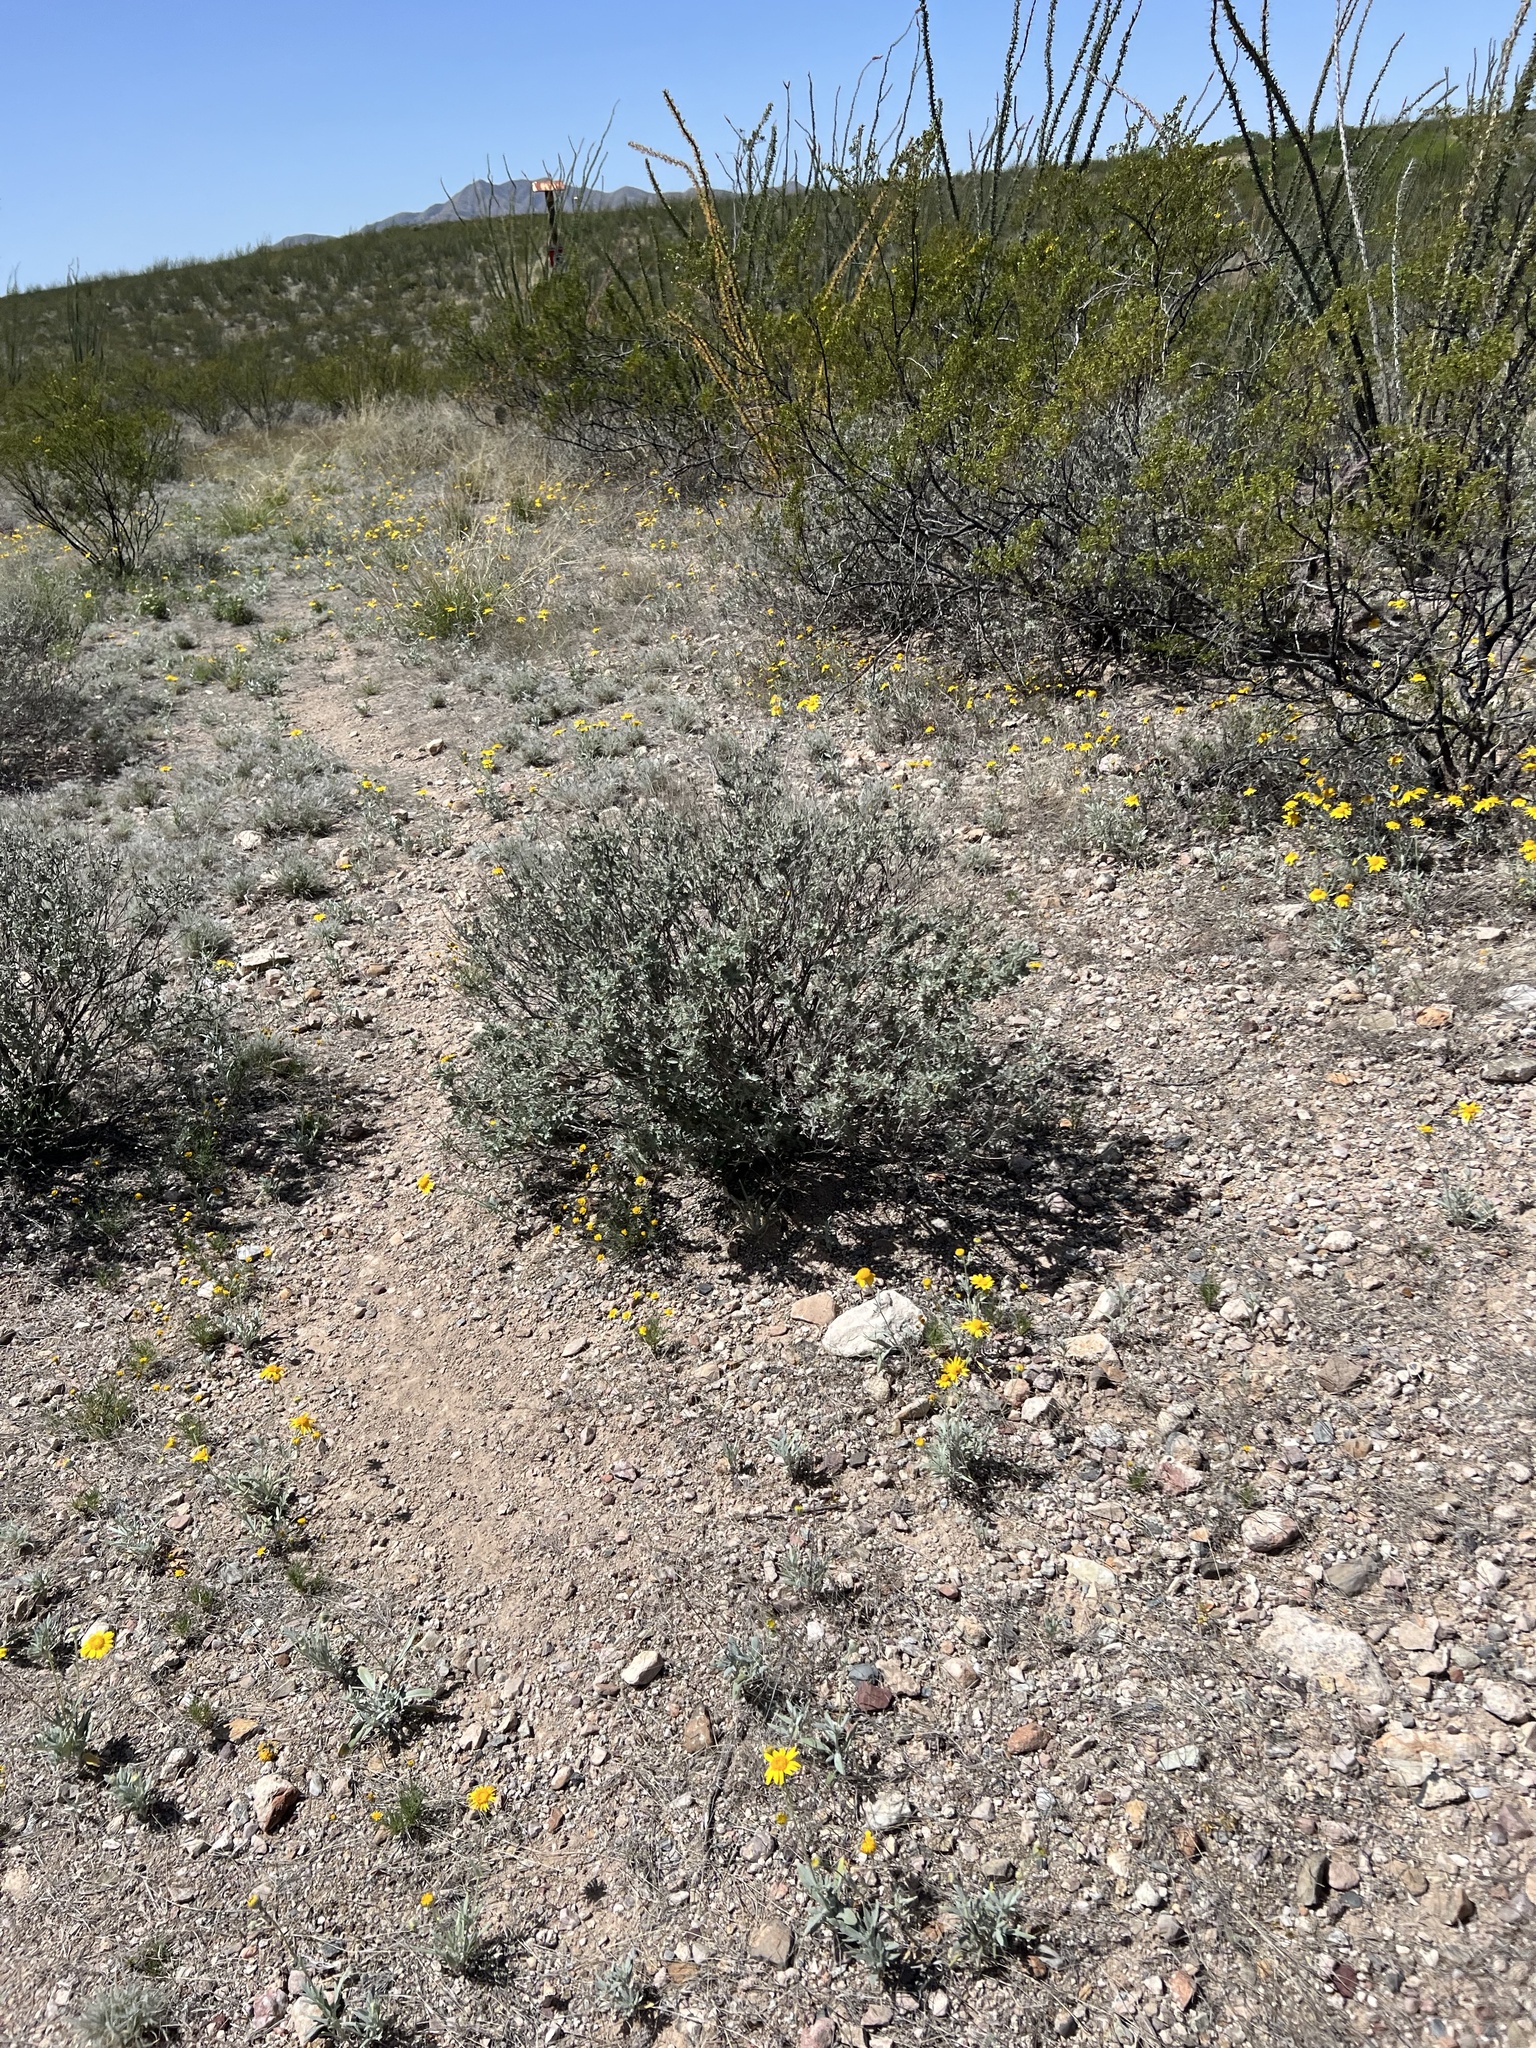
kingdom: Plantae
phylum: Tracheophyta
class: Magnoliopsida
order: Asterales
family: Asteraceae
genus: Parthenium
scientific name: Parthenium incanum
